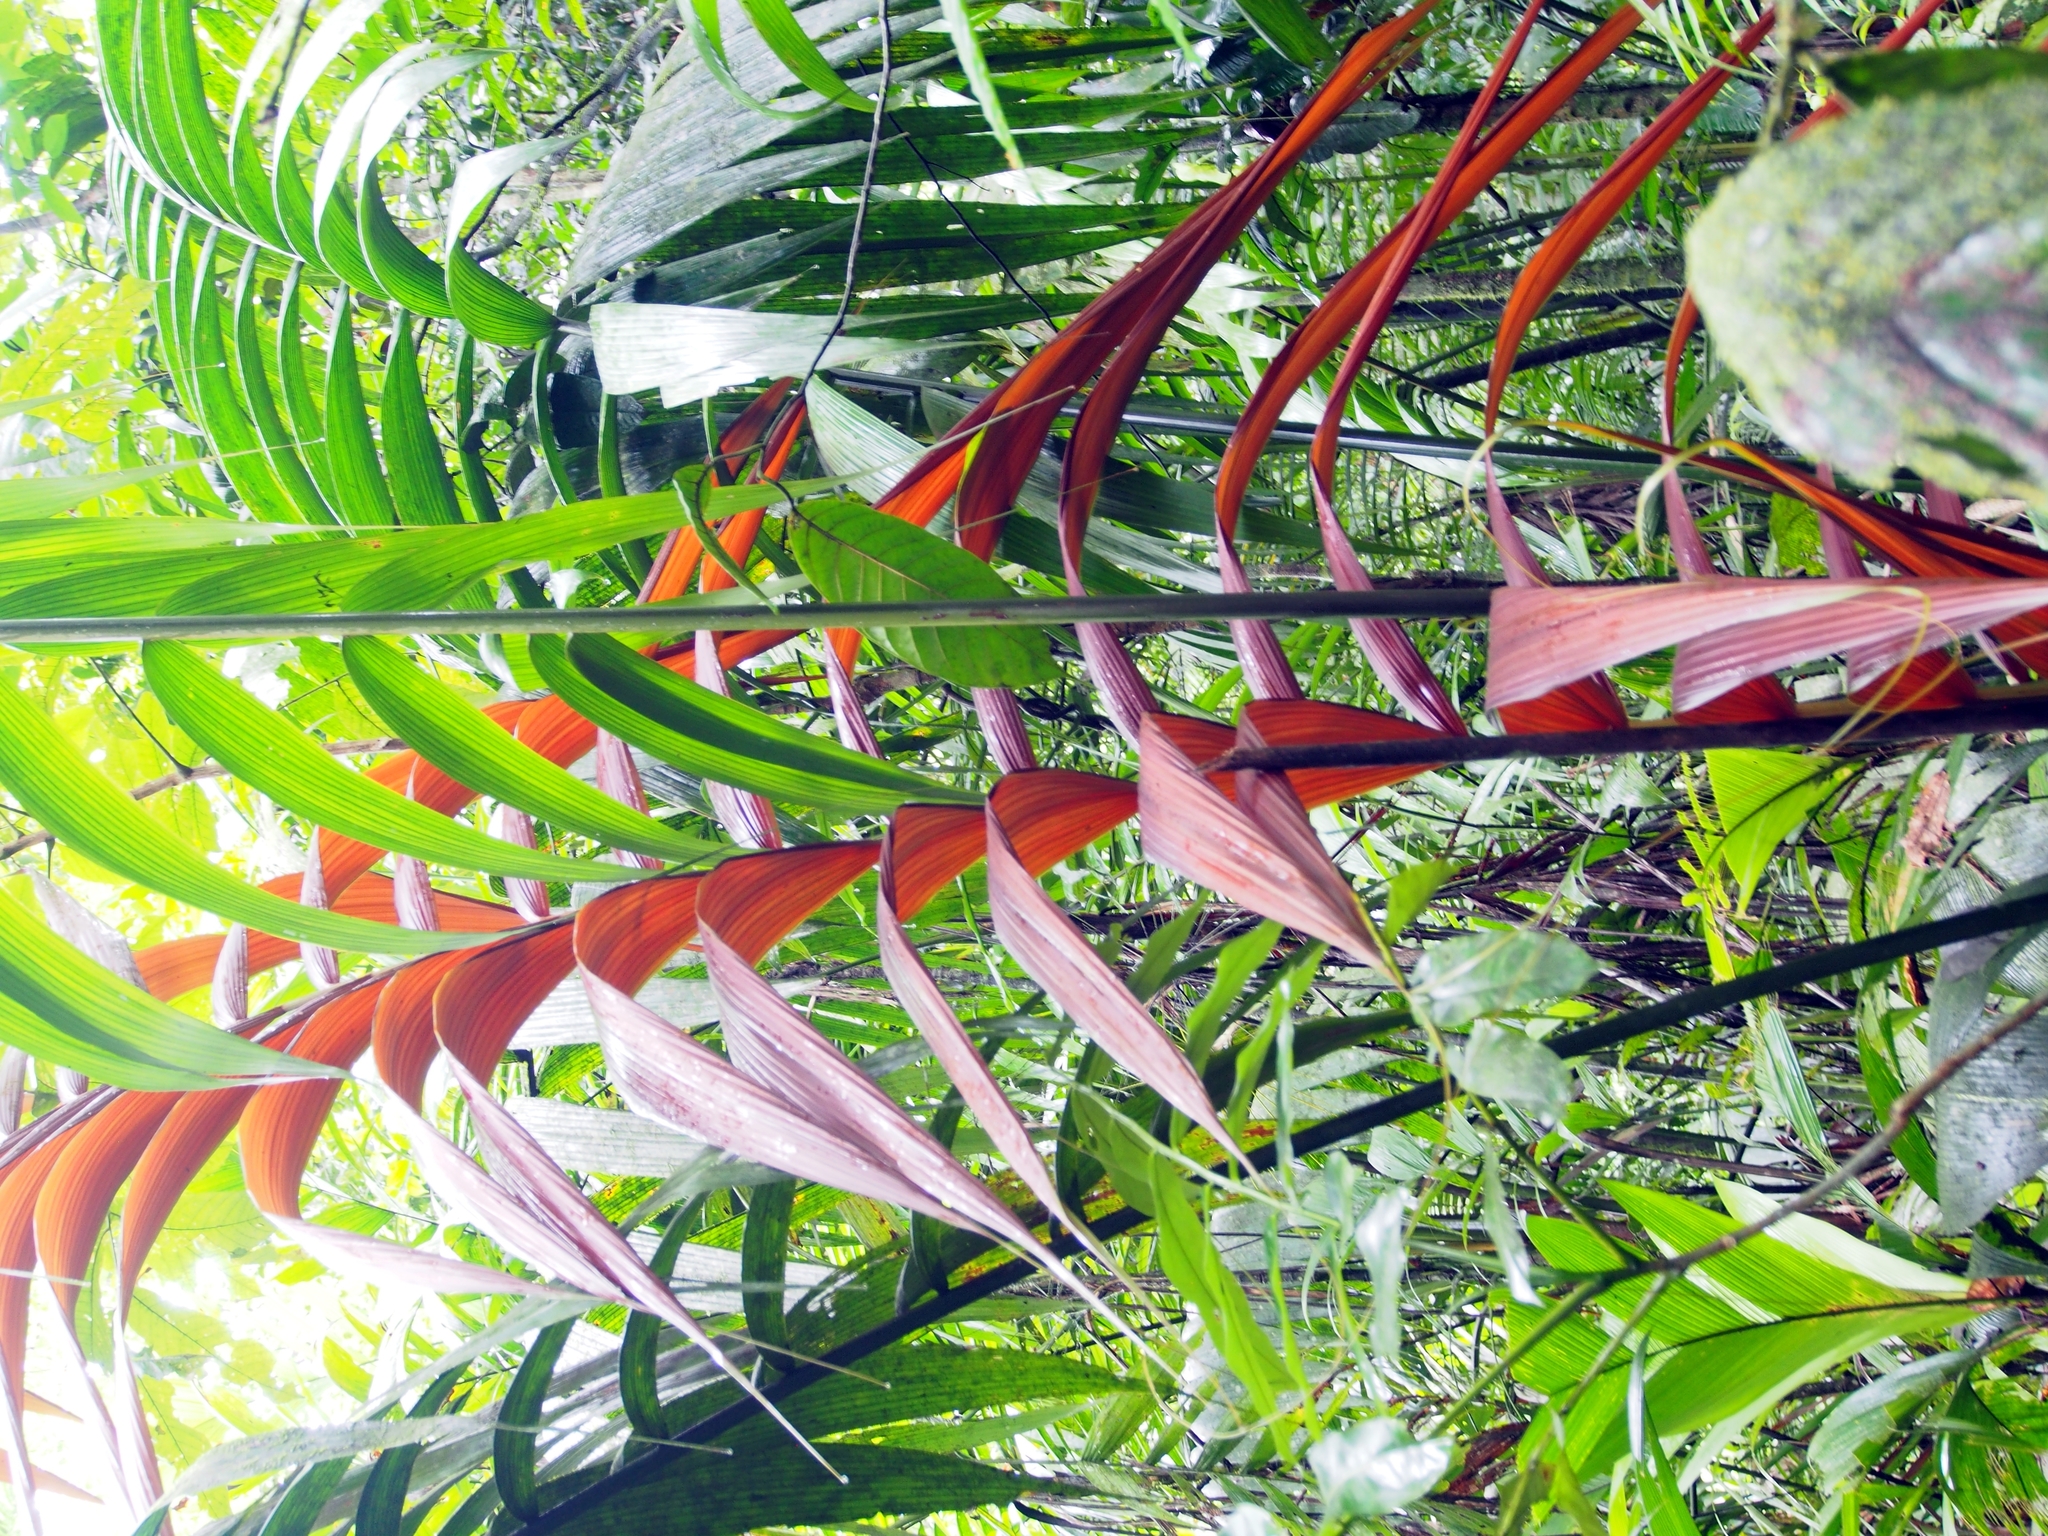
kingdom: Plantae
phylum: Tracheophyta
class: Liliopsida
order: Arecales
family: Arecaceae
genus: Welfia
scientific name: Welfia regia
